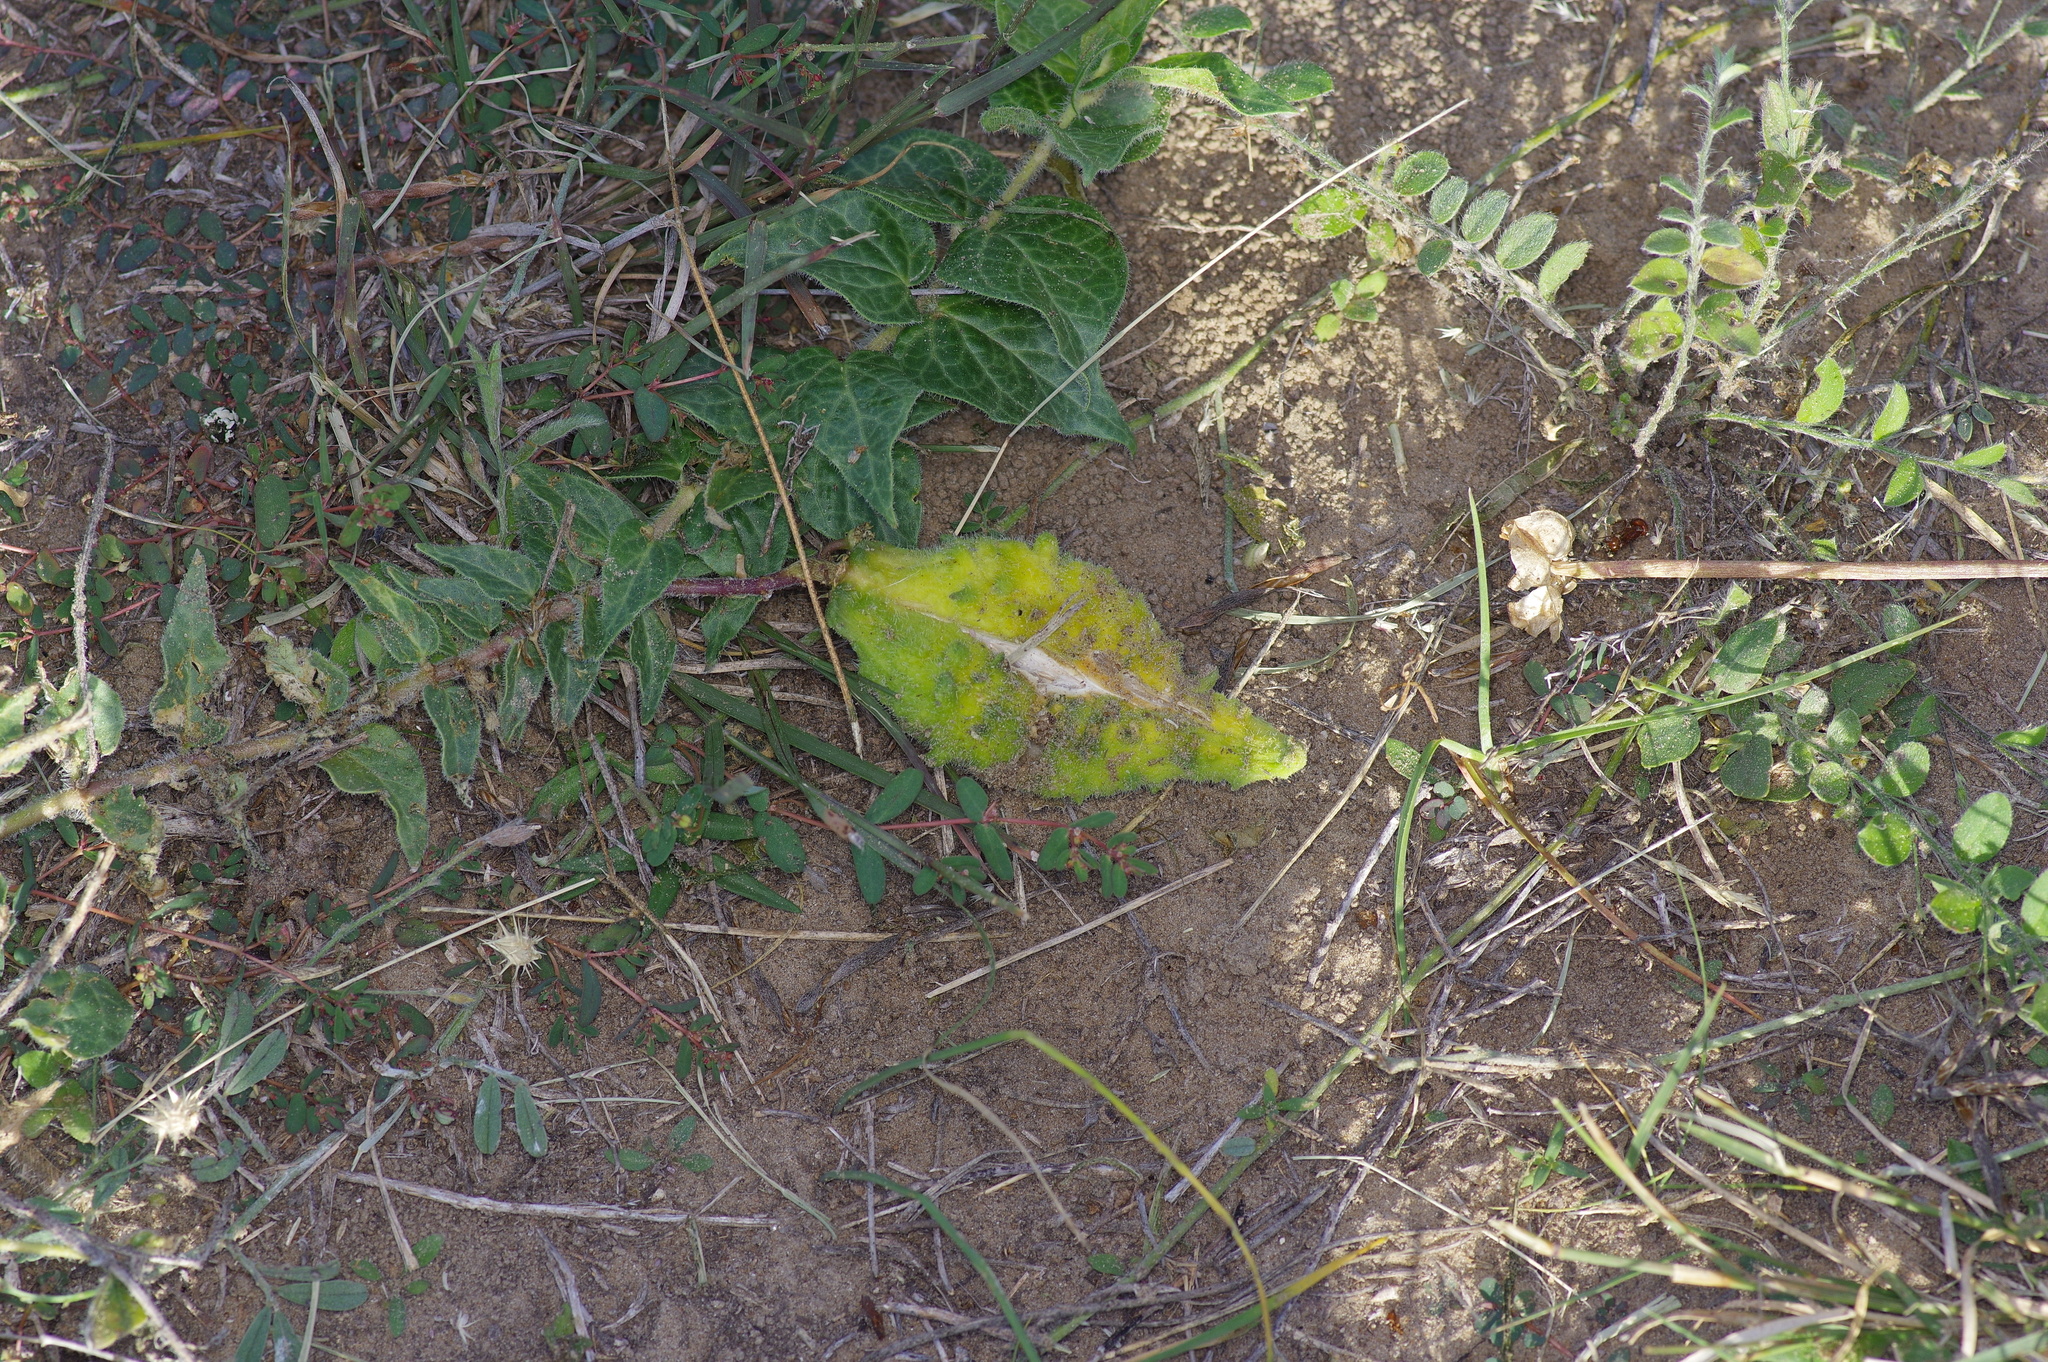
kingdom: Plantae
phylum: Tracheophyta
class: Magnoliopsida
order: Gentianales
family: Apocynaceae
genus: Chthamalia
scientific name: Chthamalia parviflora
